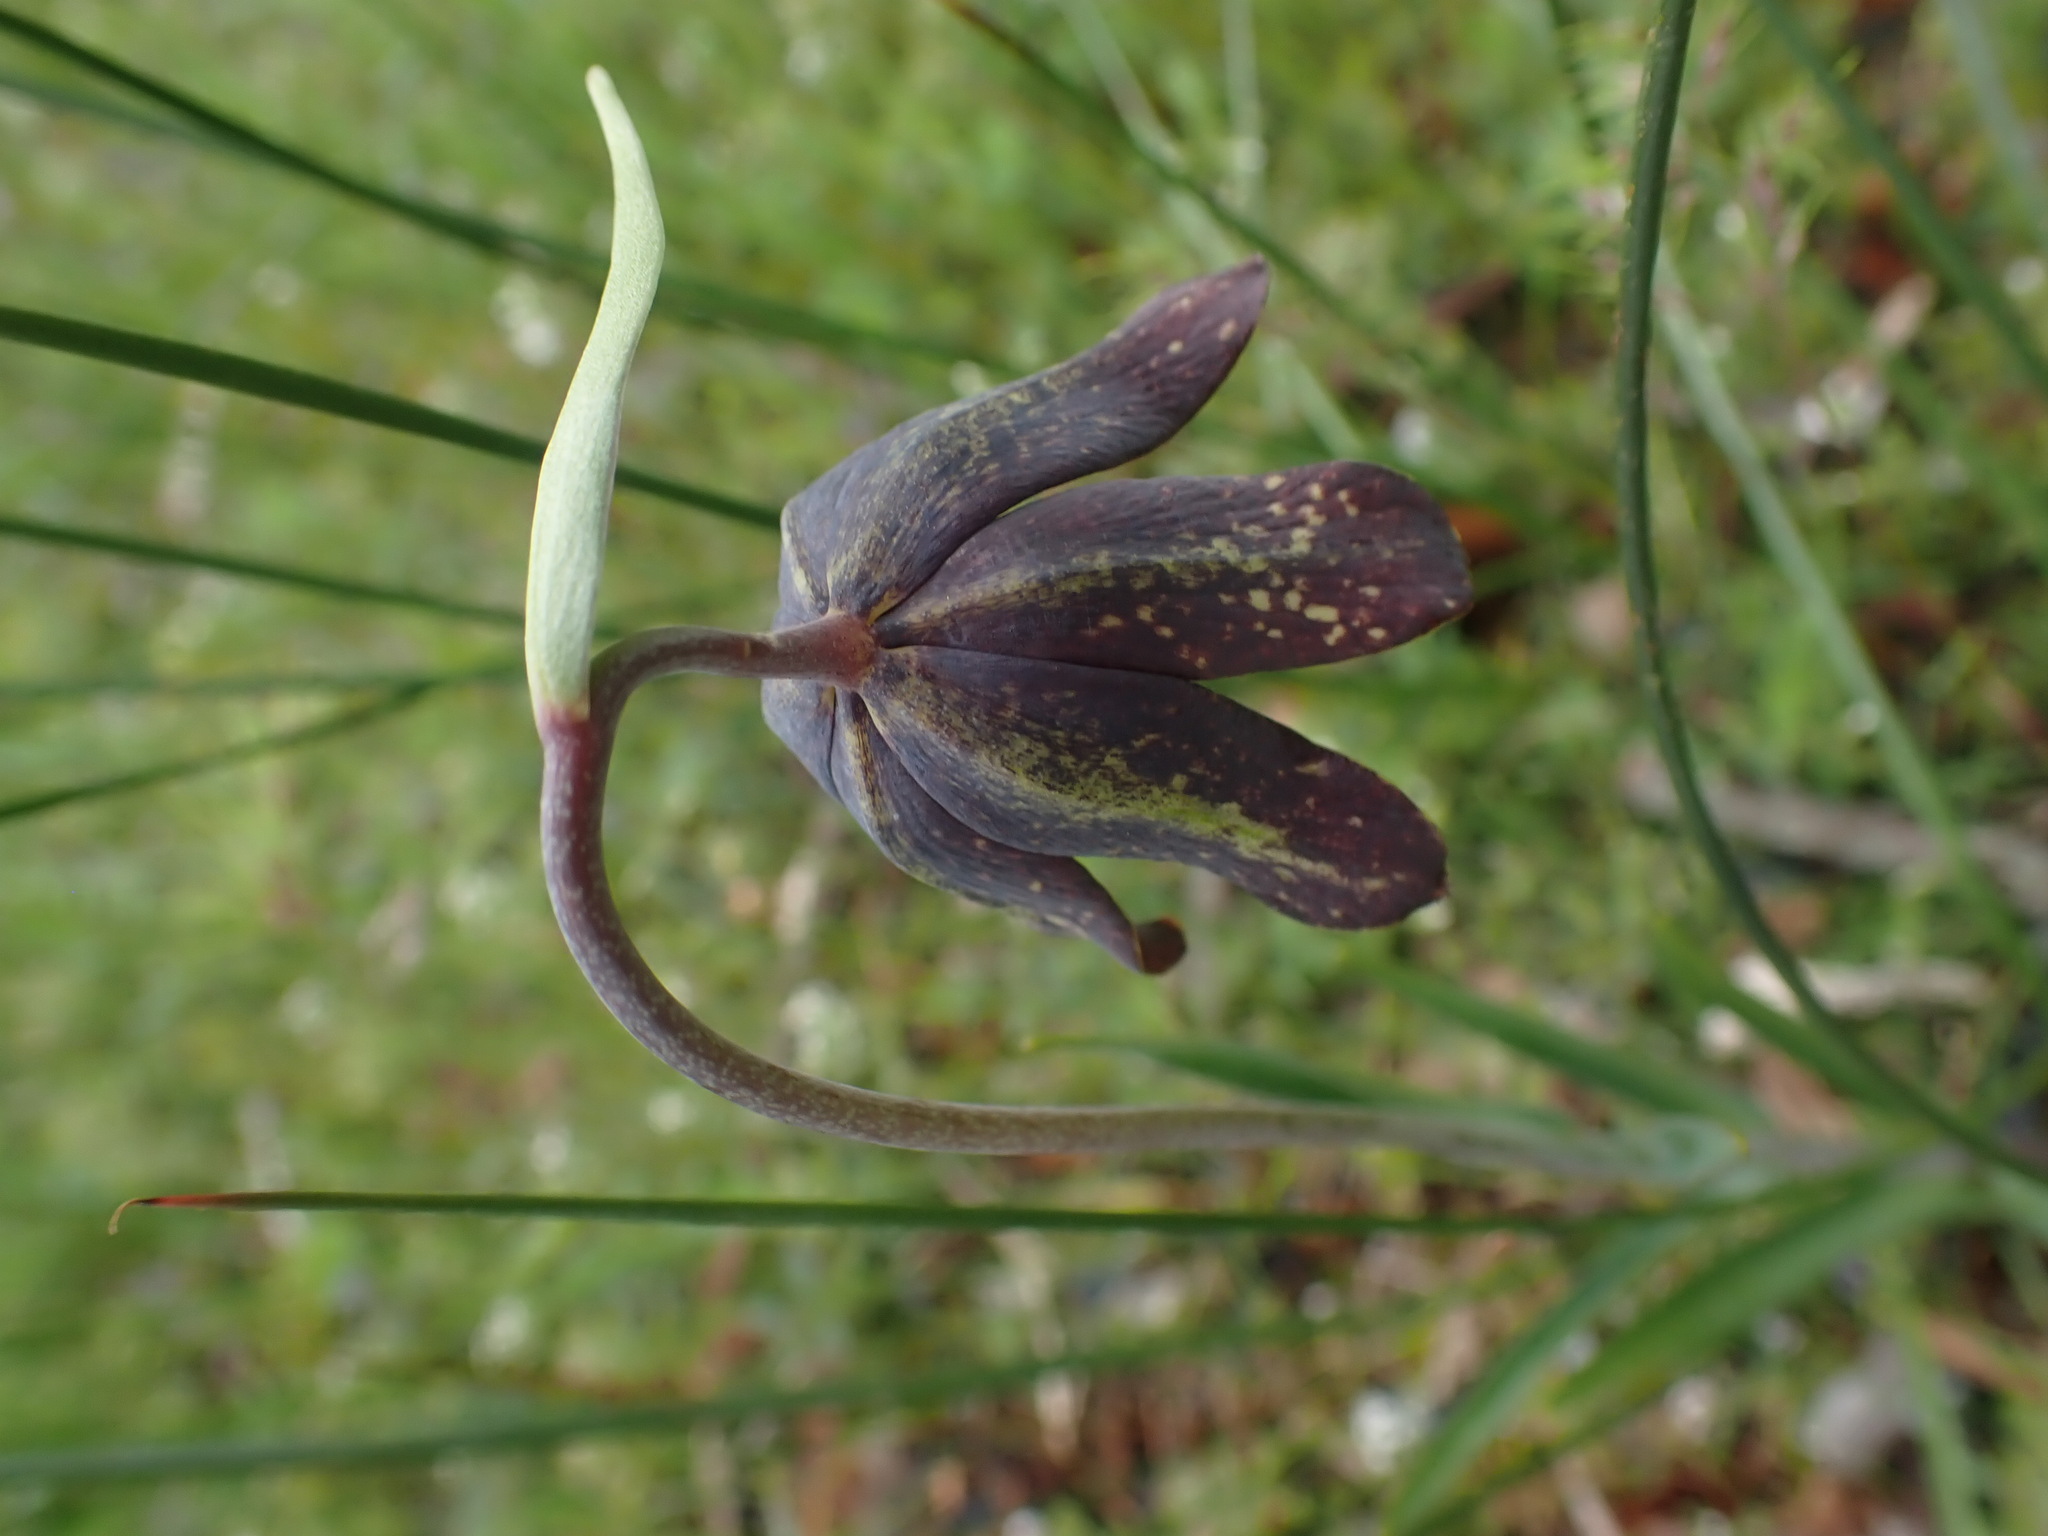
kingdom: Plantae
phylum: Tracheophyta
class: Liliopsida
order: Liliales
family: Liliaceae
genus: Fritillaria
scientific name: Fritillaria affinis
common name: Ojai fritillary
